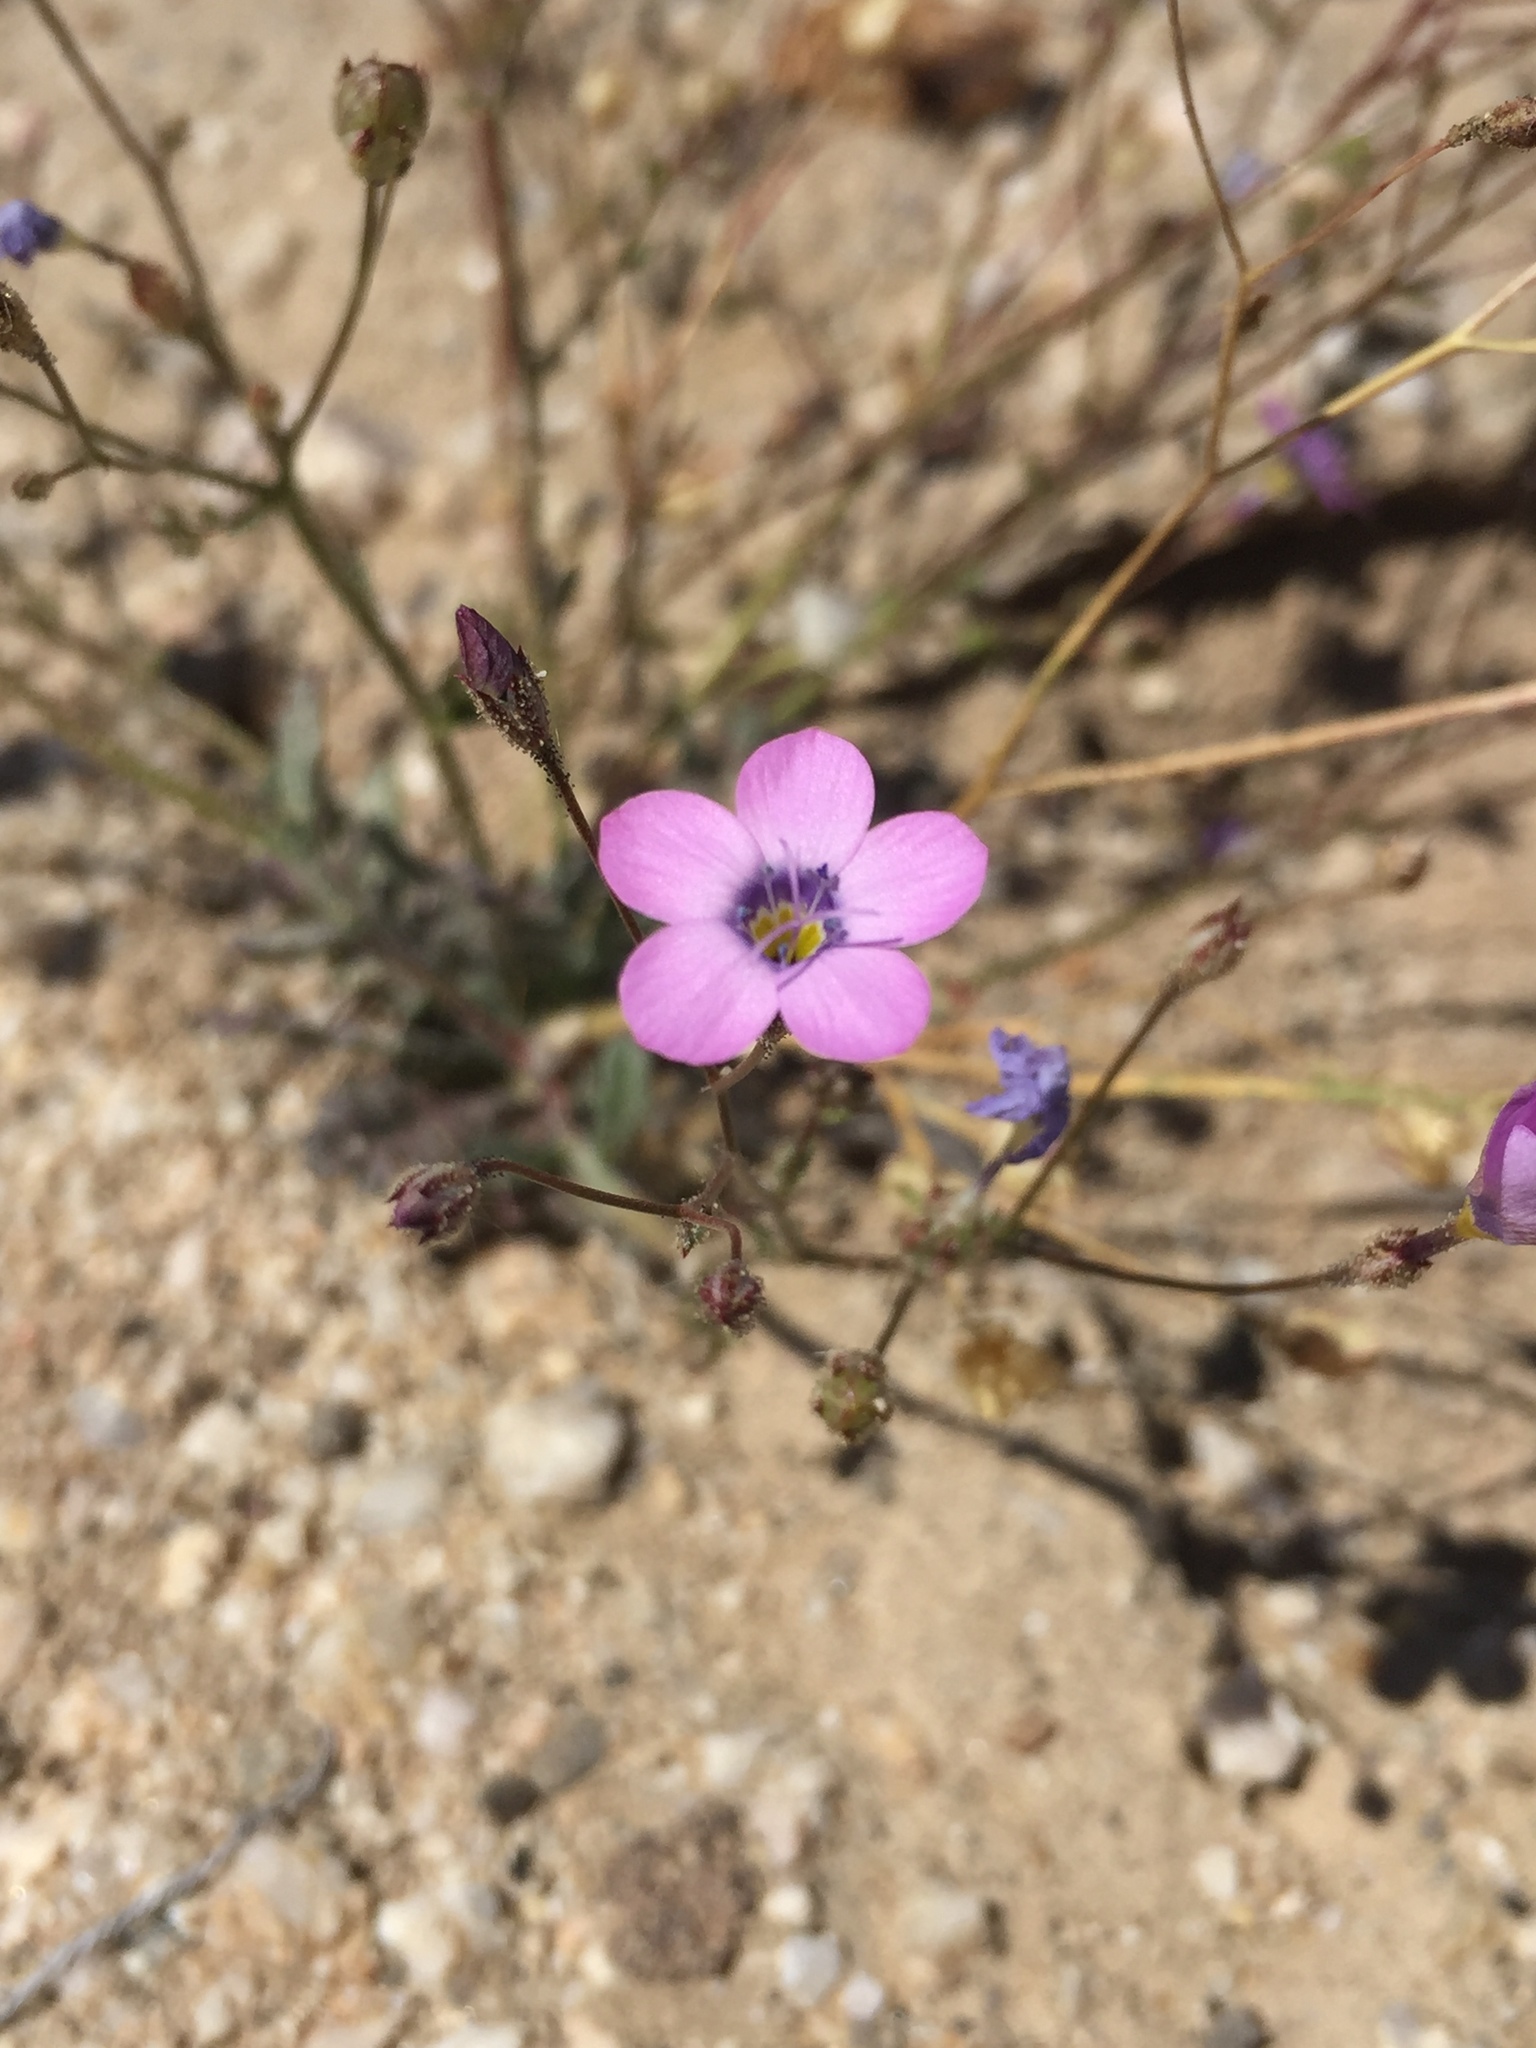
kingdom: Plantae
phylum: Tracheophyta
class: Magnoliopsida
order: Ericales
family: Polemoniaceae
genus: Gilia
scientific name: Gilia cana
